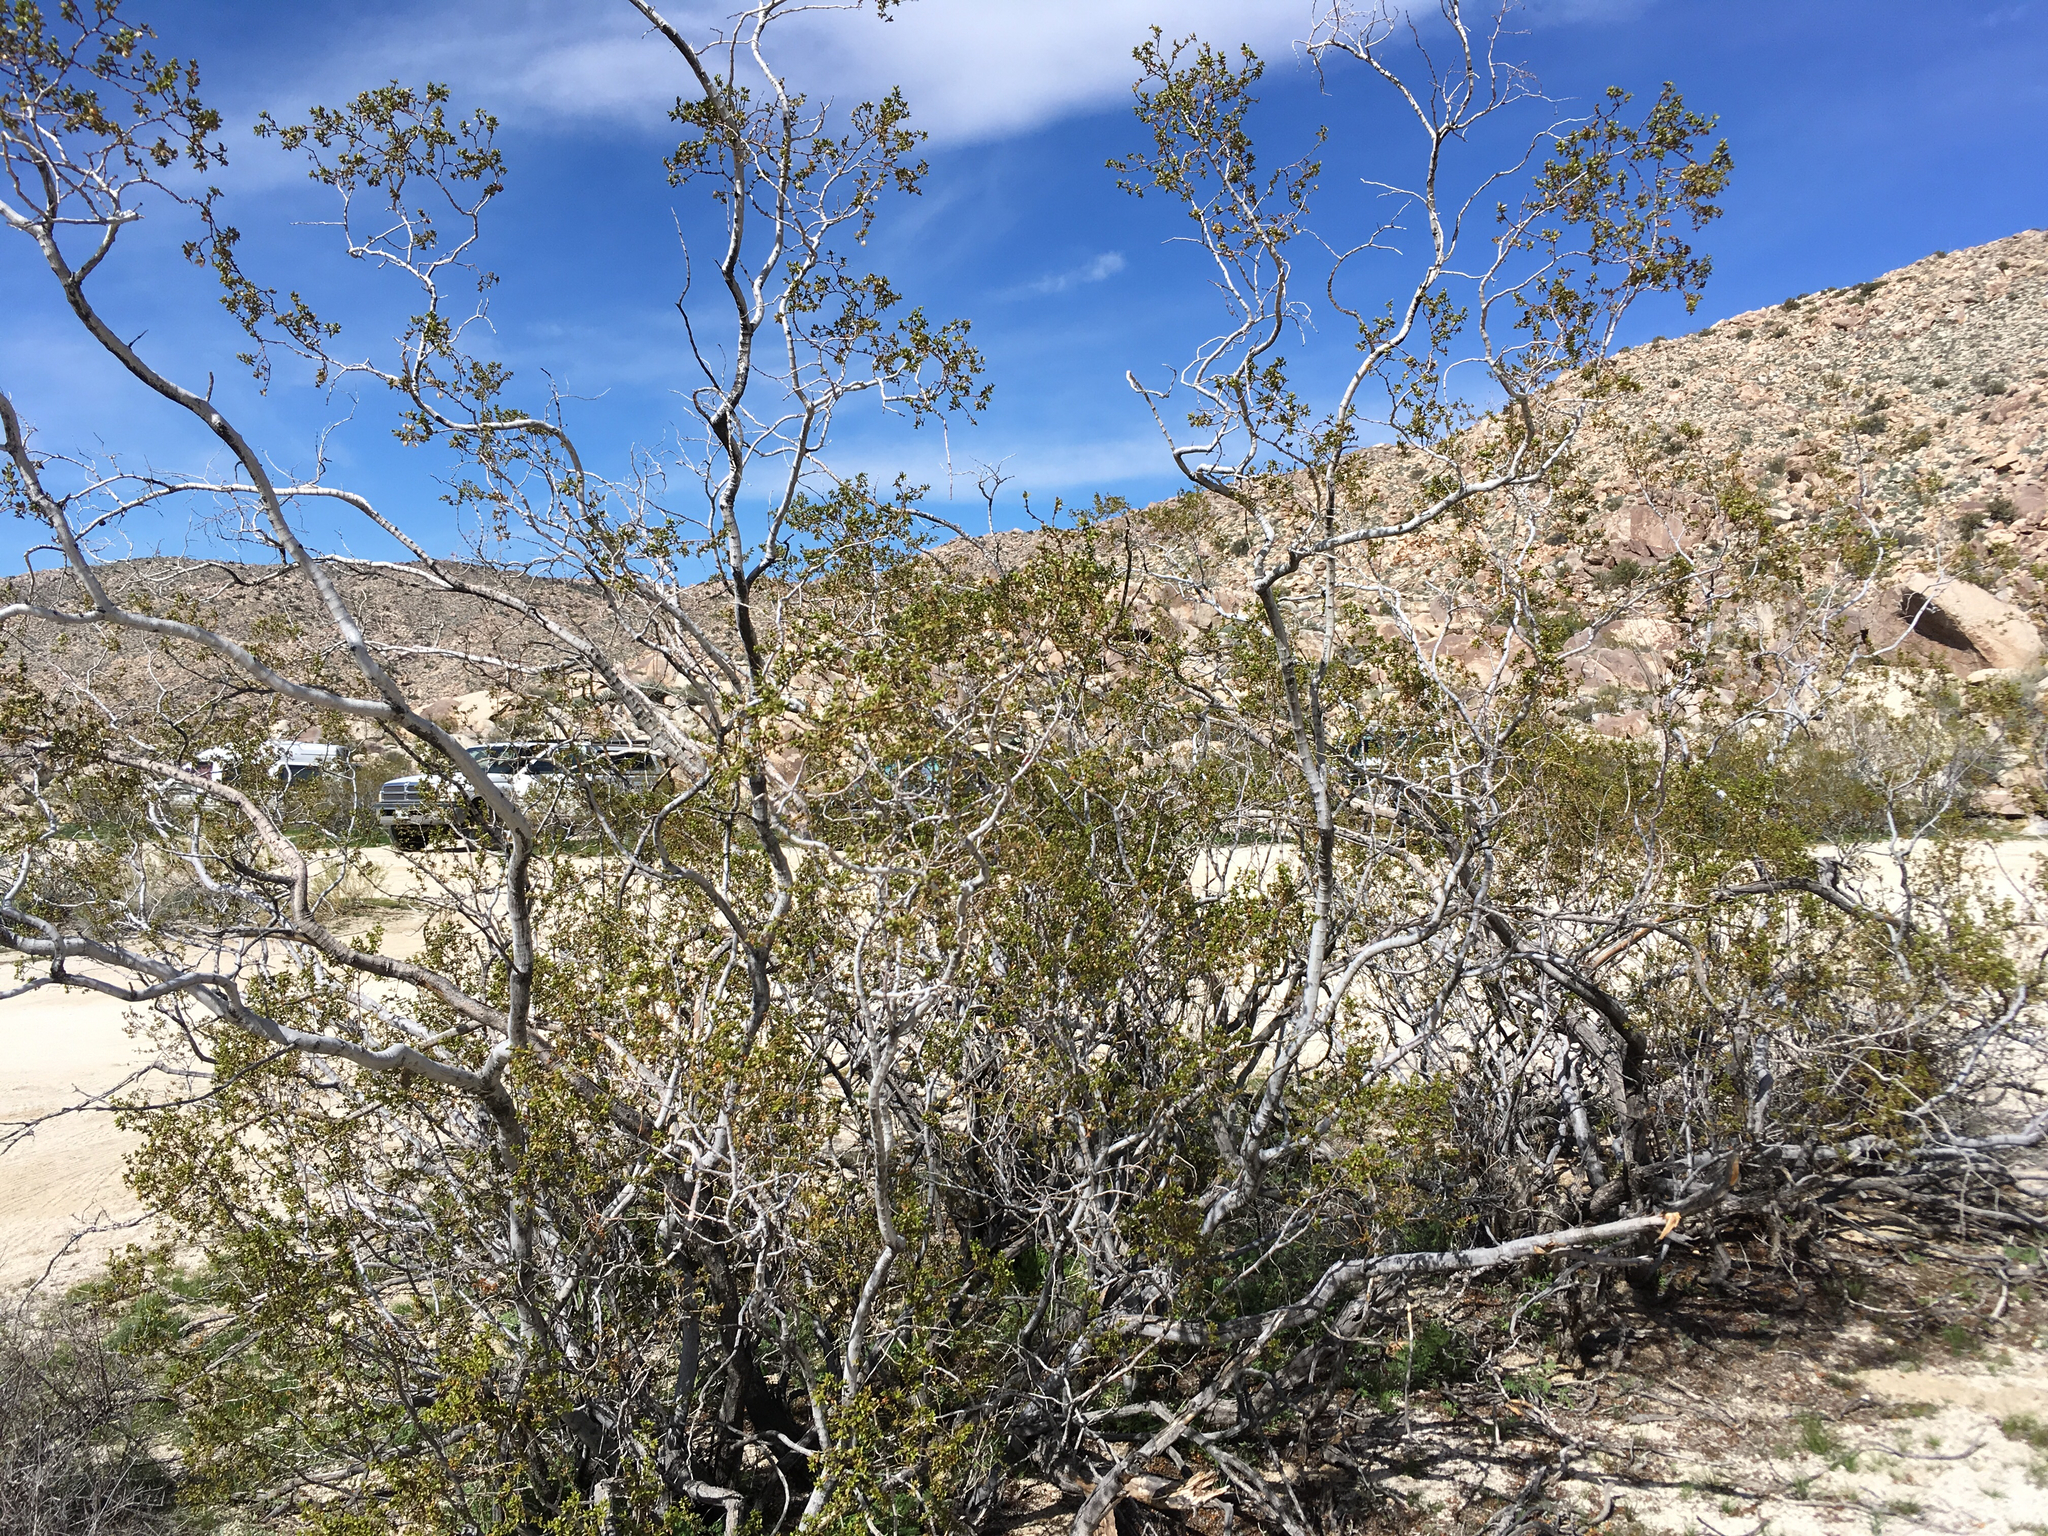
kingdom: Plantae
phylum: Tracheophyta
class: Magnoliopsida
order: Zygophyllales
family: Zygophyllaceae
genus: Larrea
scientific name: Larrea tridentata
